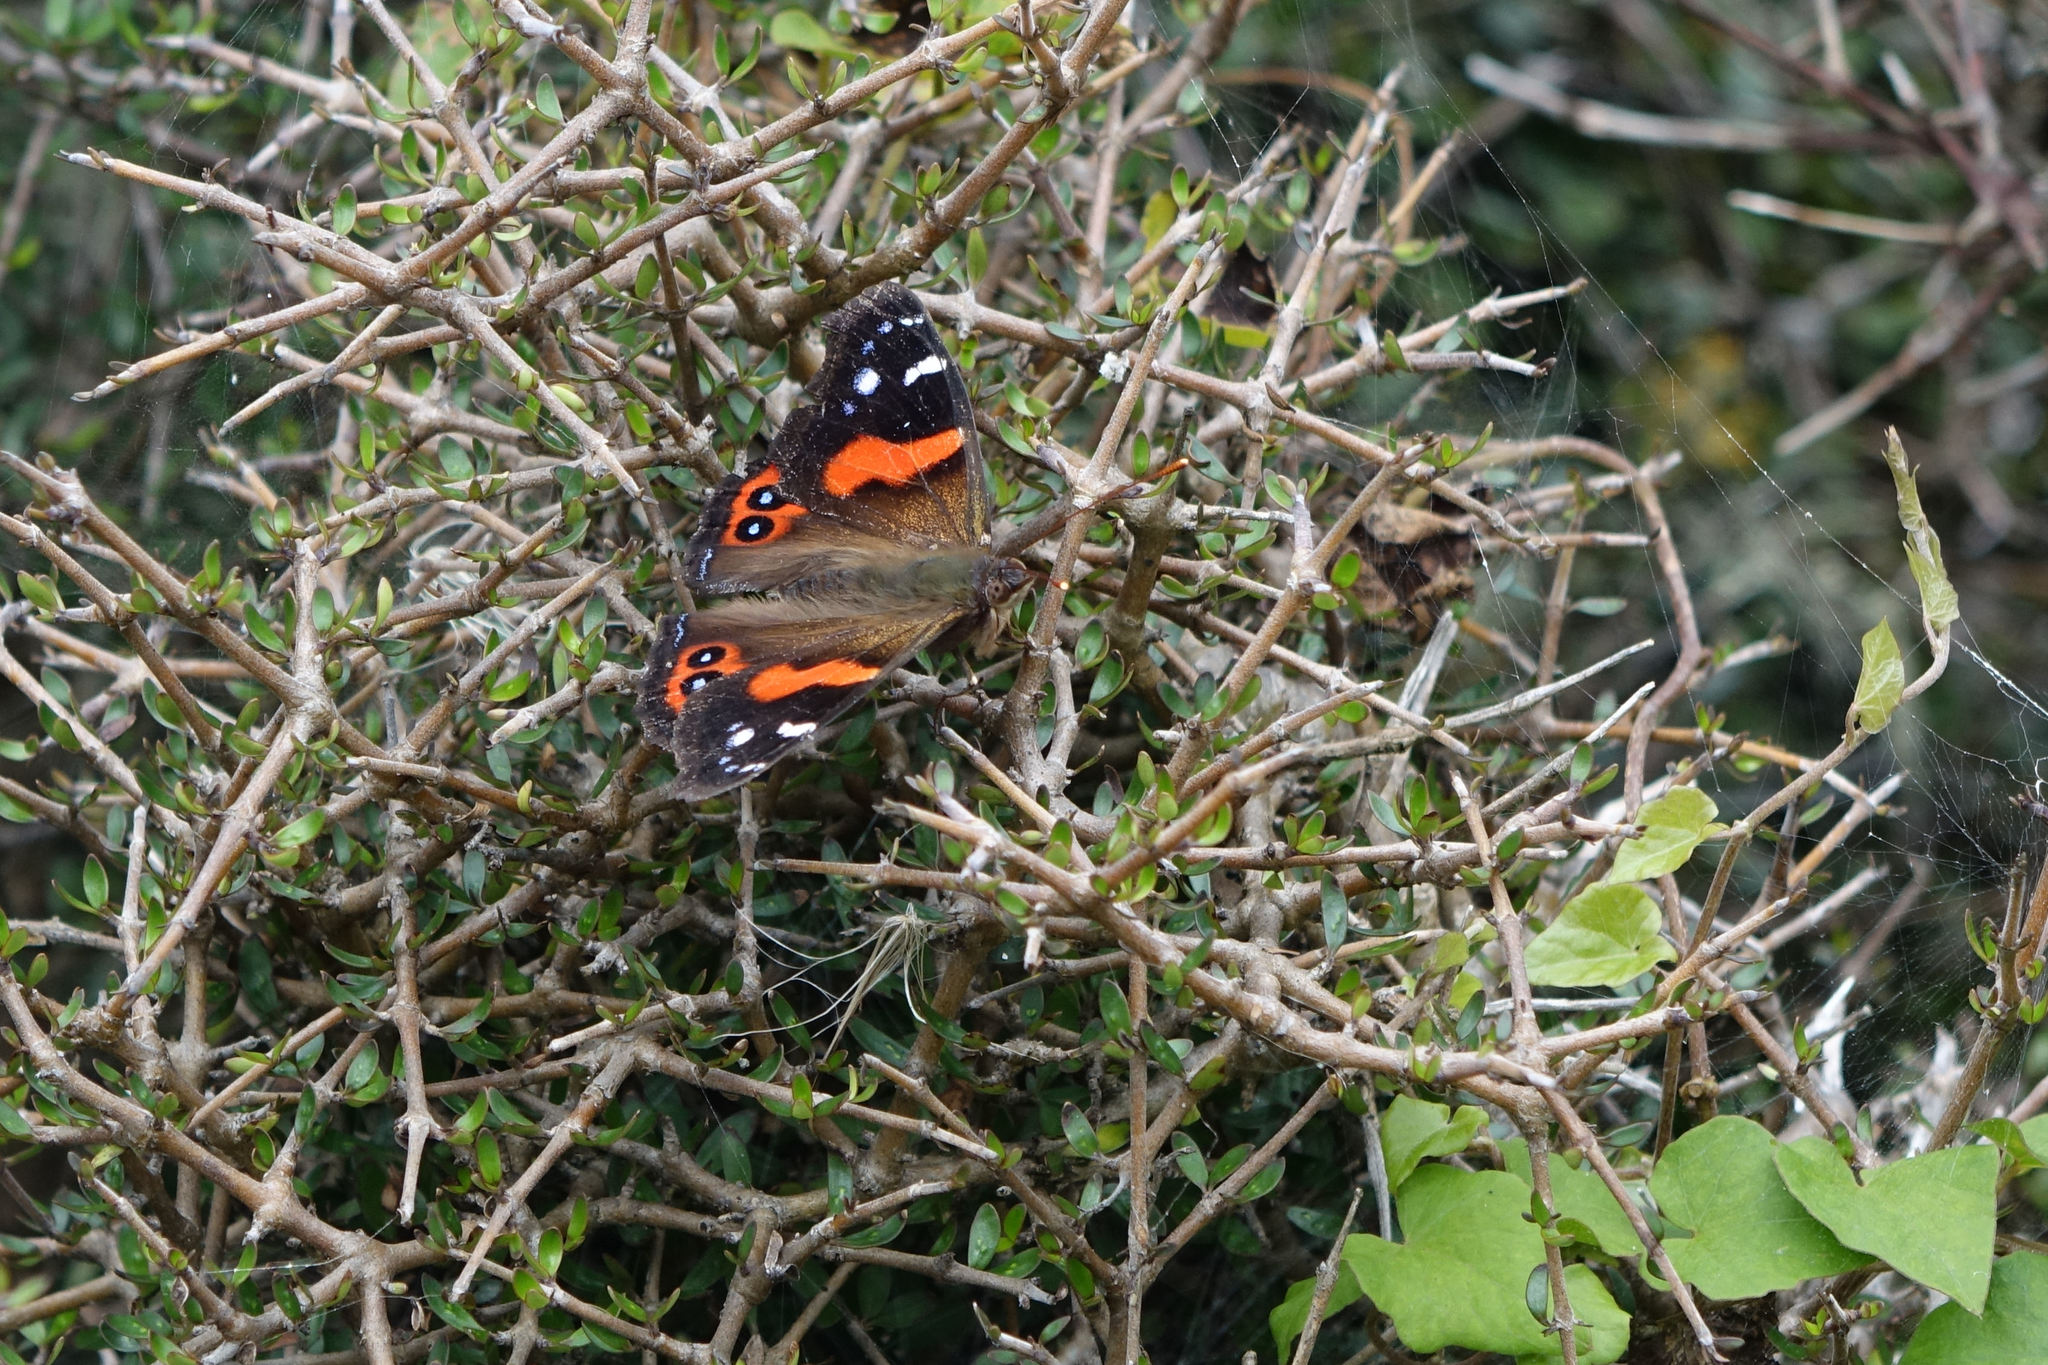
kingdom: Animalia
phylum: Arthropoda
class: Insecta
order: Lepidoptera
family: Nymphalidae
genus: Vanessa
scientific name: Vanessa gonerilla
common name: New zealand red admiral
